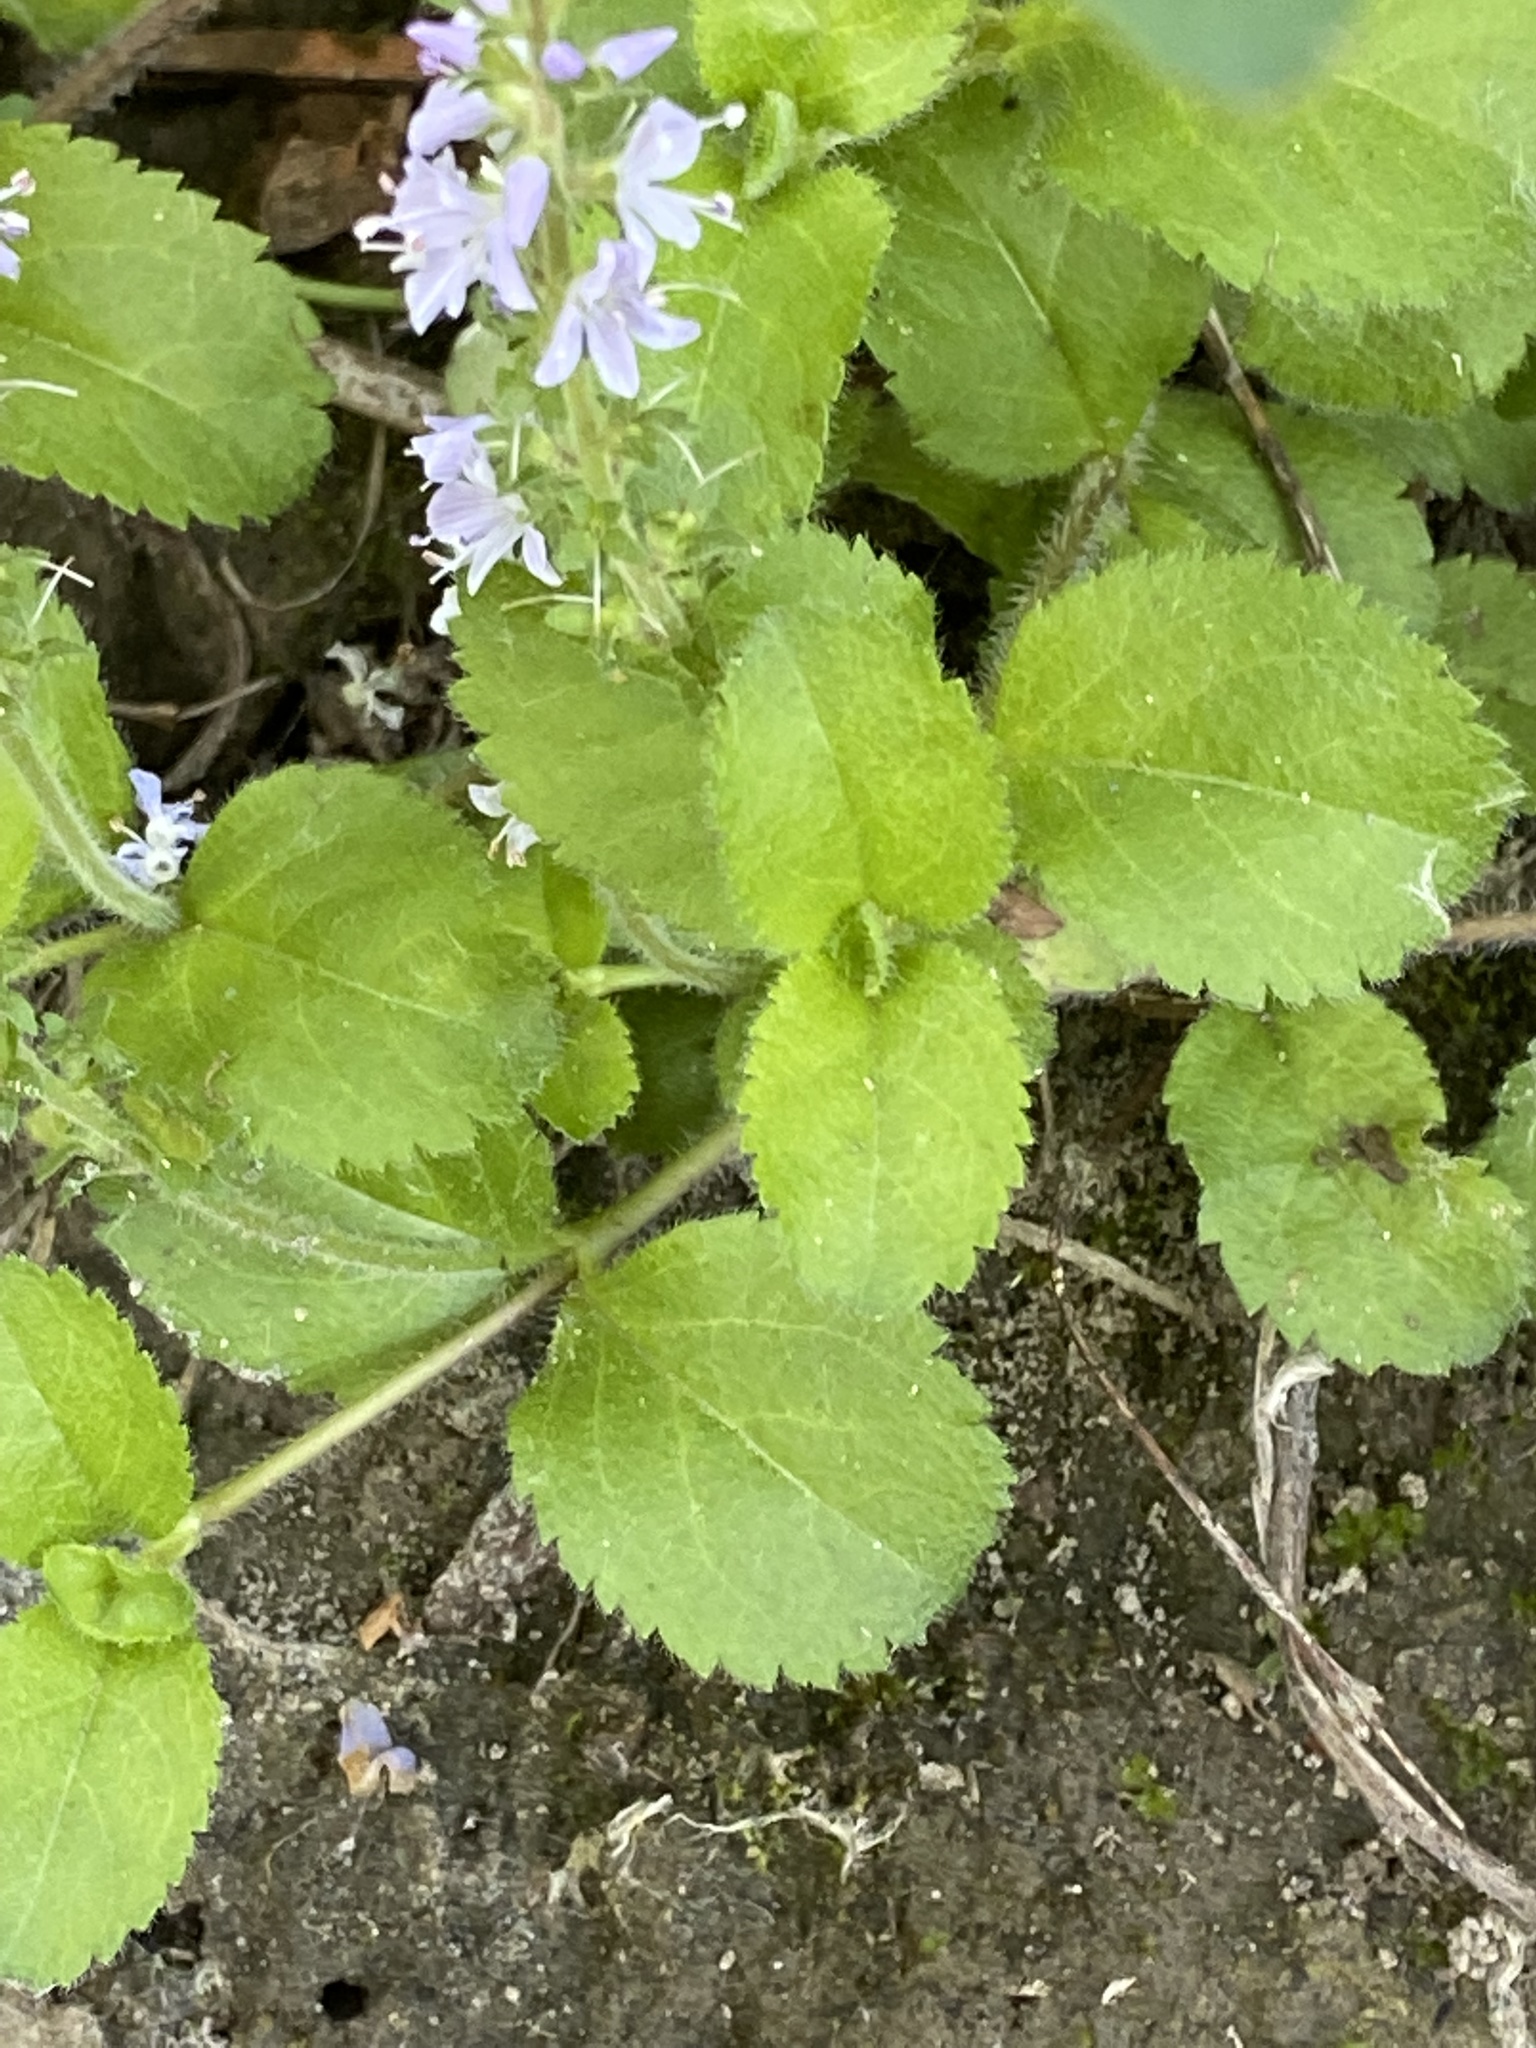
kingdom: Plantae
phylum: Tracheophyta
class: Magnoliopsida
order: Lamiales
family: Plantaginaceae
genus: Veronica
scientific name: Veronica officinalis
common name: Common speedwell
